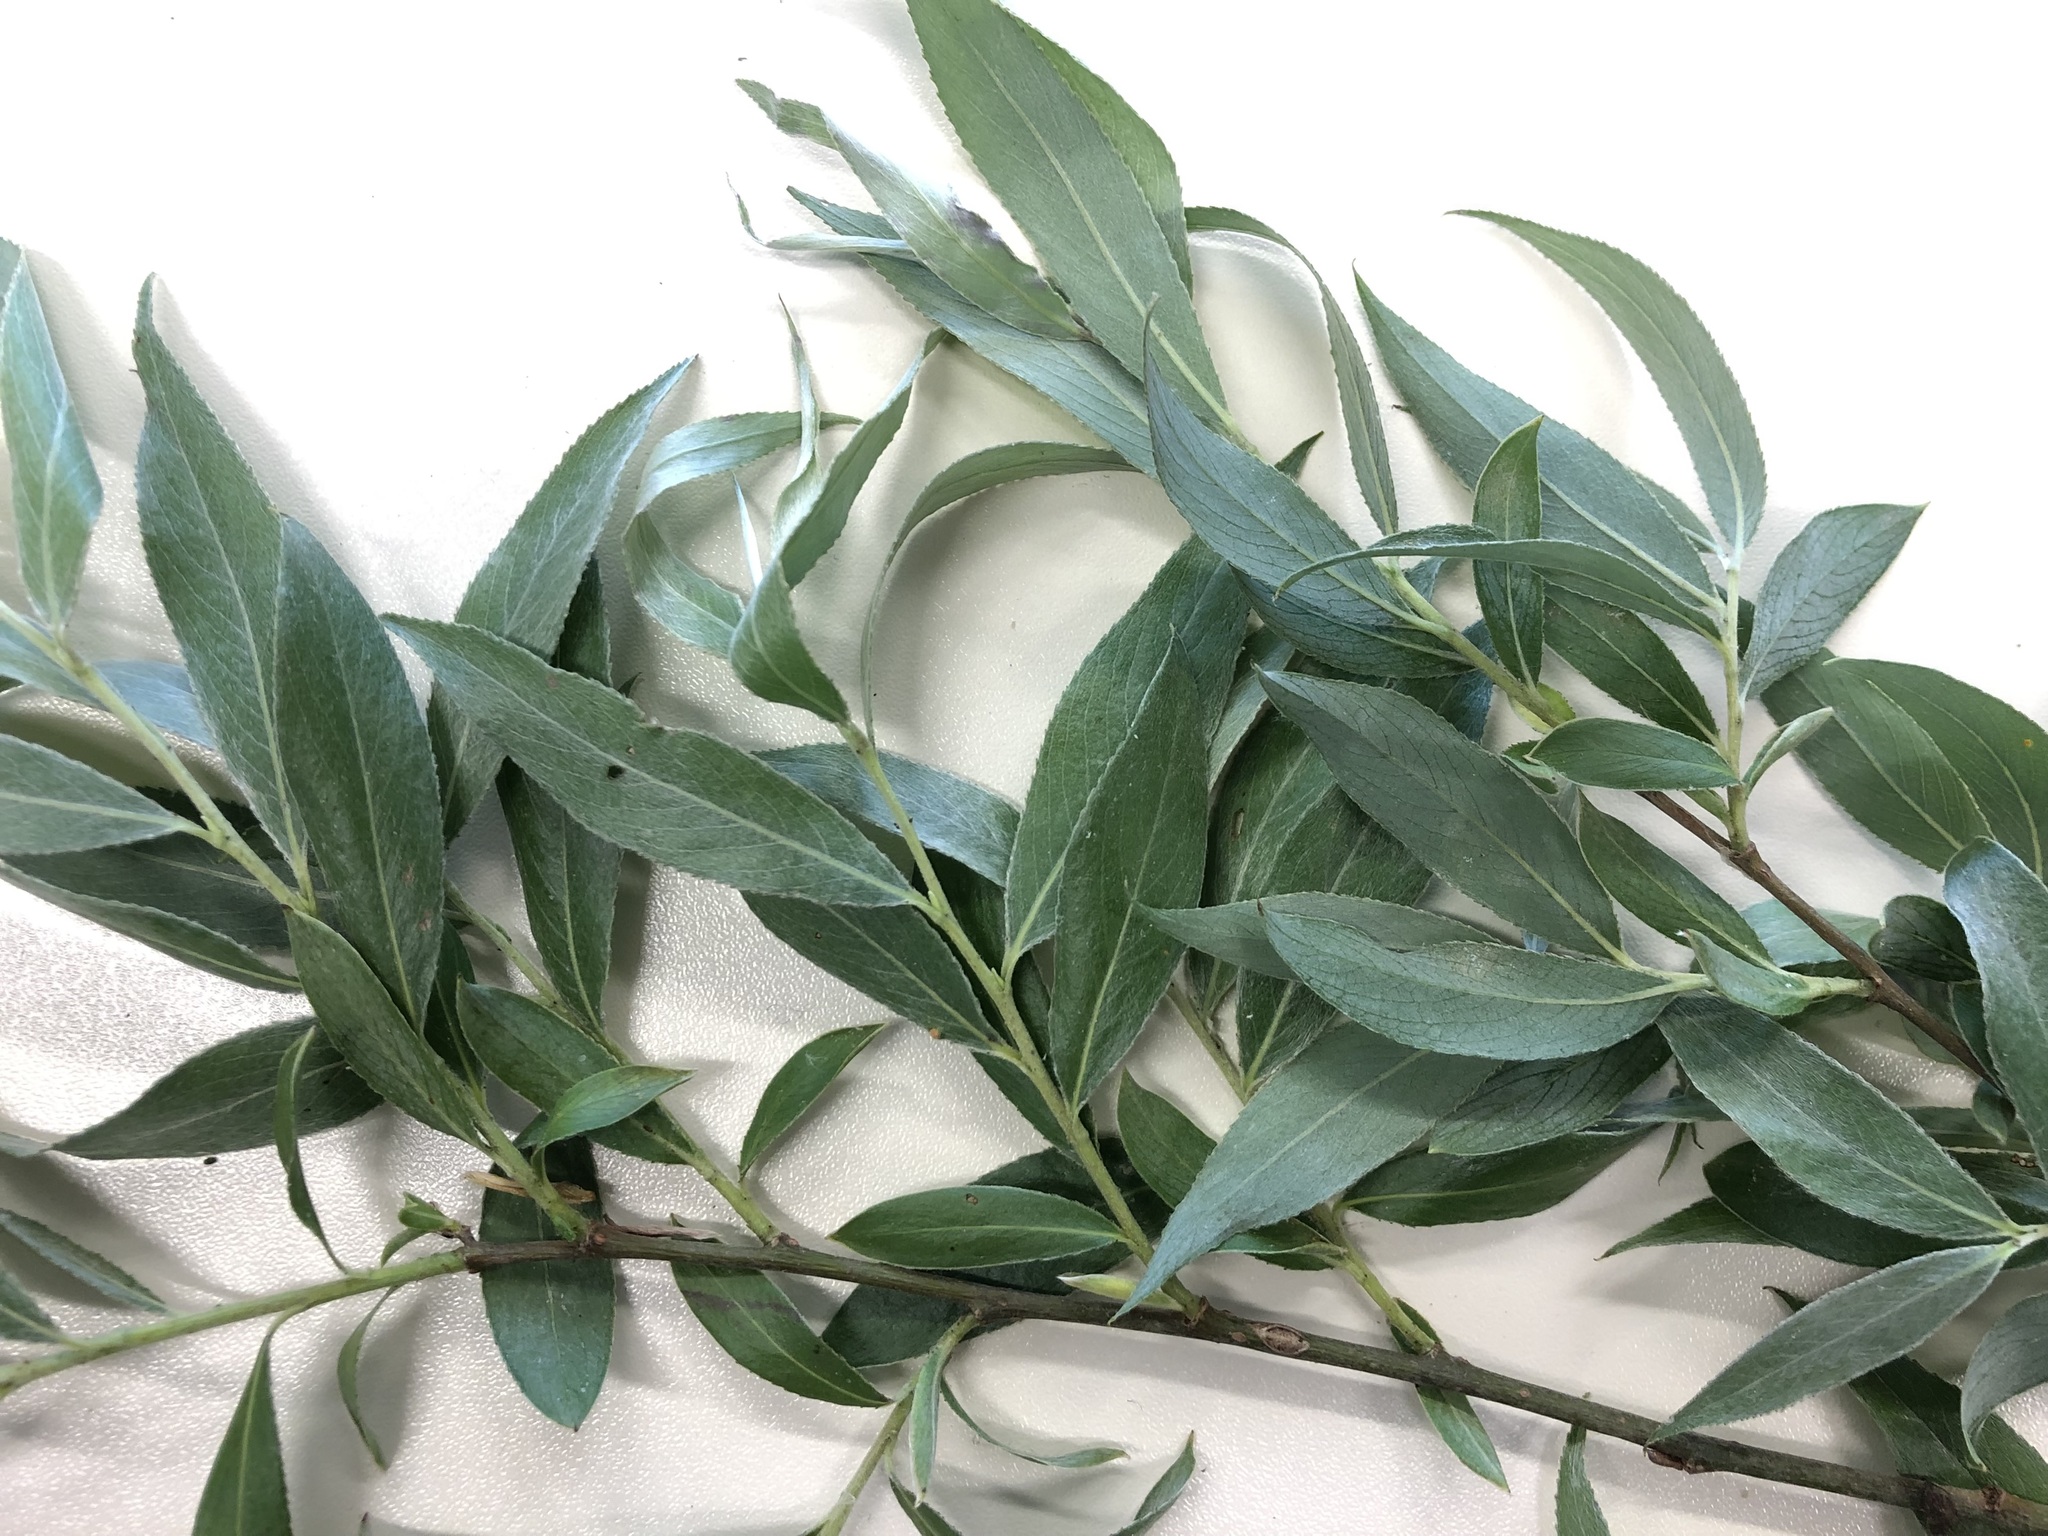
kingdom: Plantae
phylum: Tracheophyta
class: Magnoliopsida
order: Malpighiales
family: Salicaceae
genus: Salix
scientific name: Salix alba
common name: White willow
